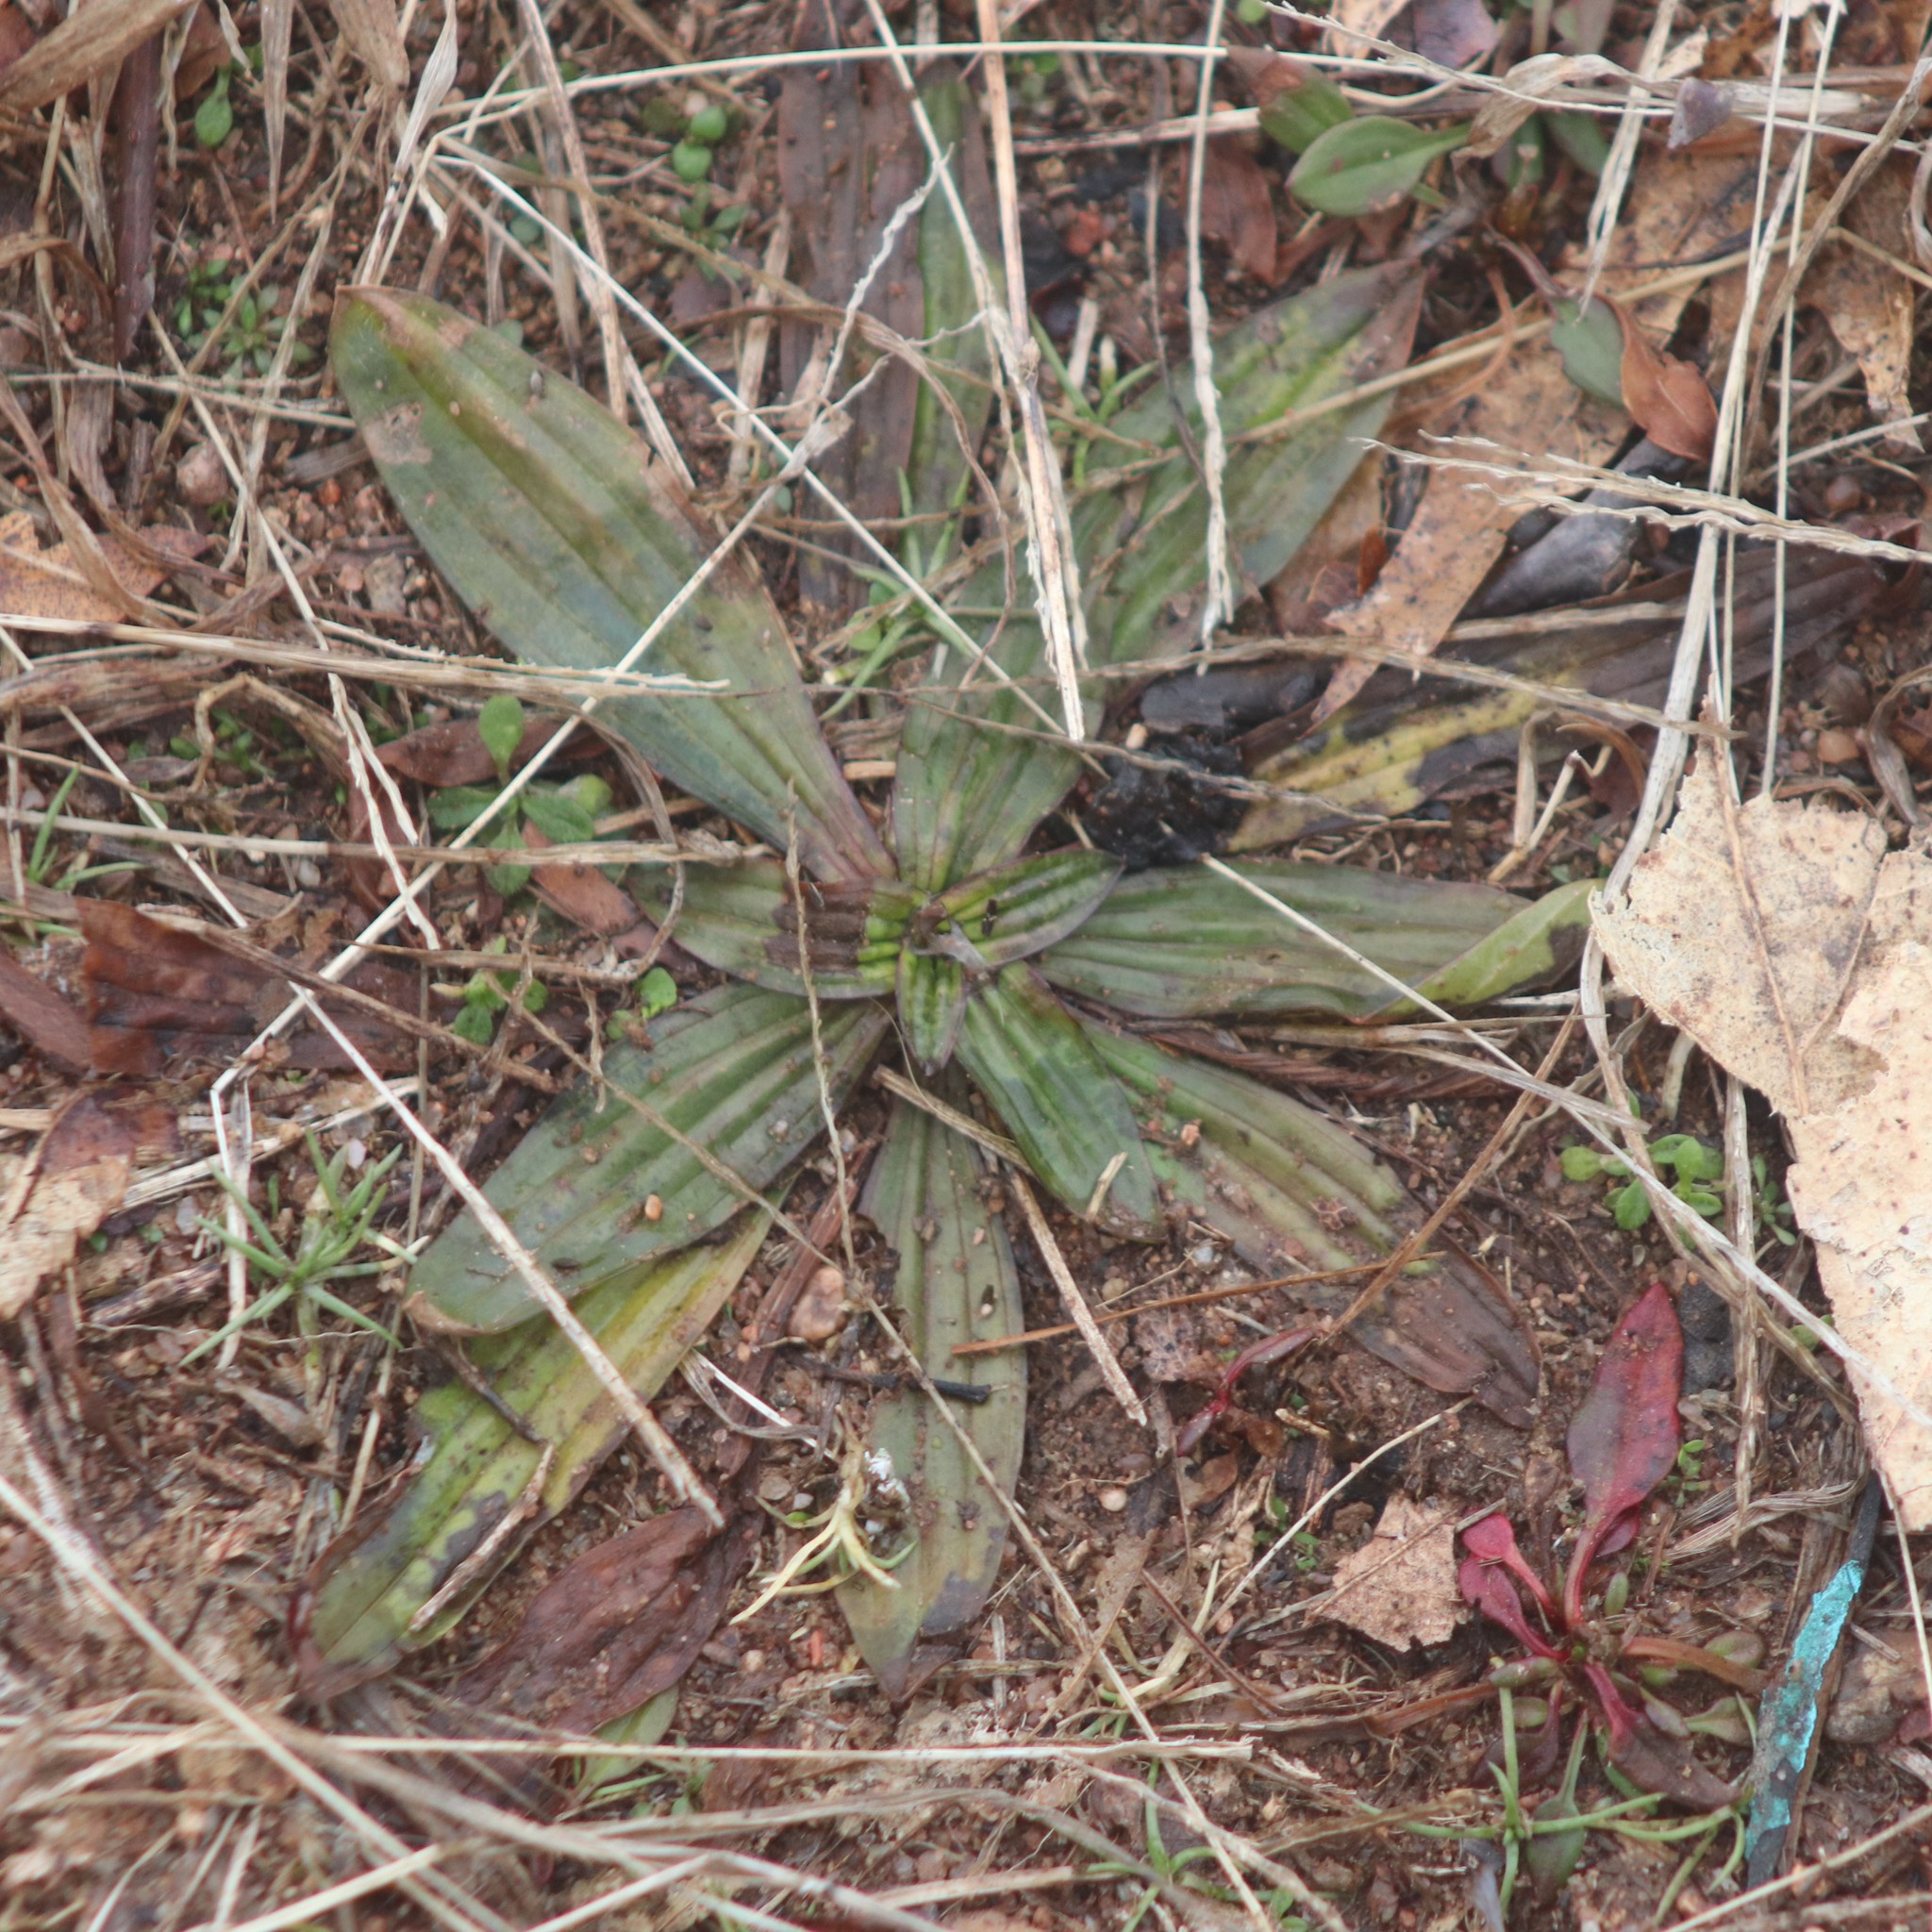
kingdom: Plantae
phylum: Tracheophyta
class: Magnoliopsida
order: Lamiales
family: Plantaginaceae
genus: Plantago
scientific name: Plantago lanceolata
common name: Ribwort plantain
